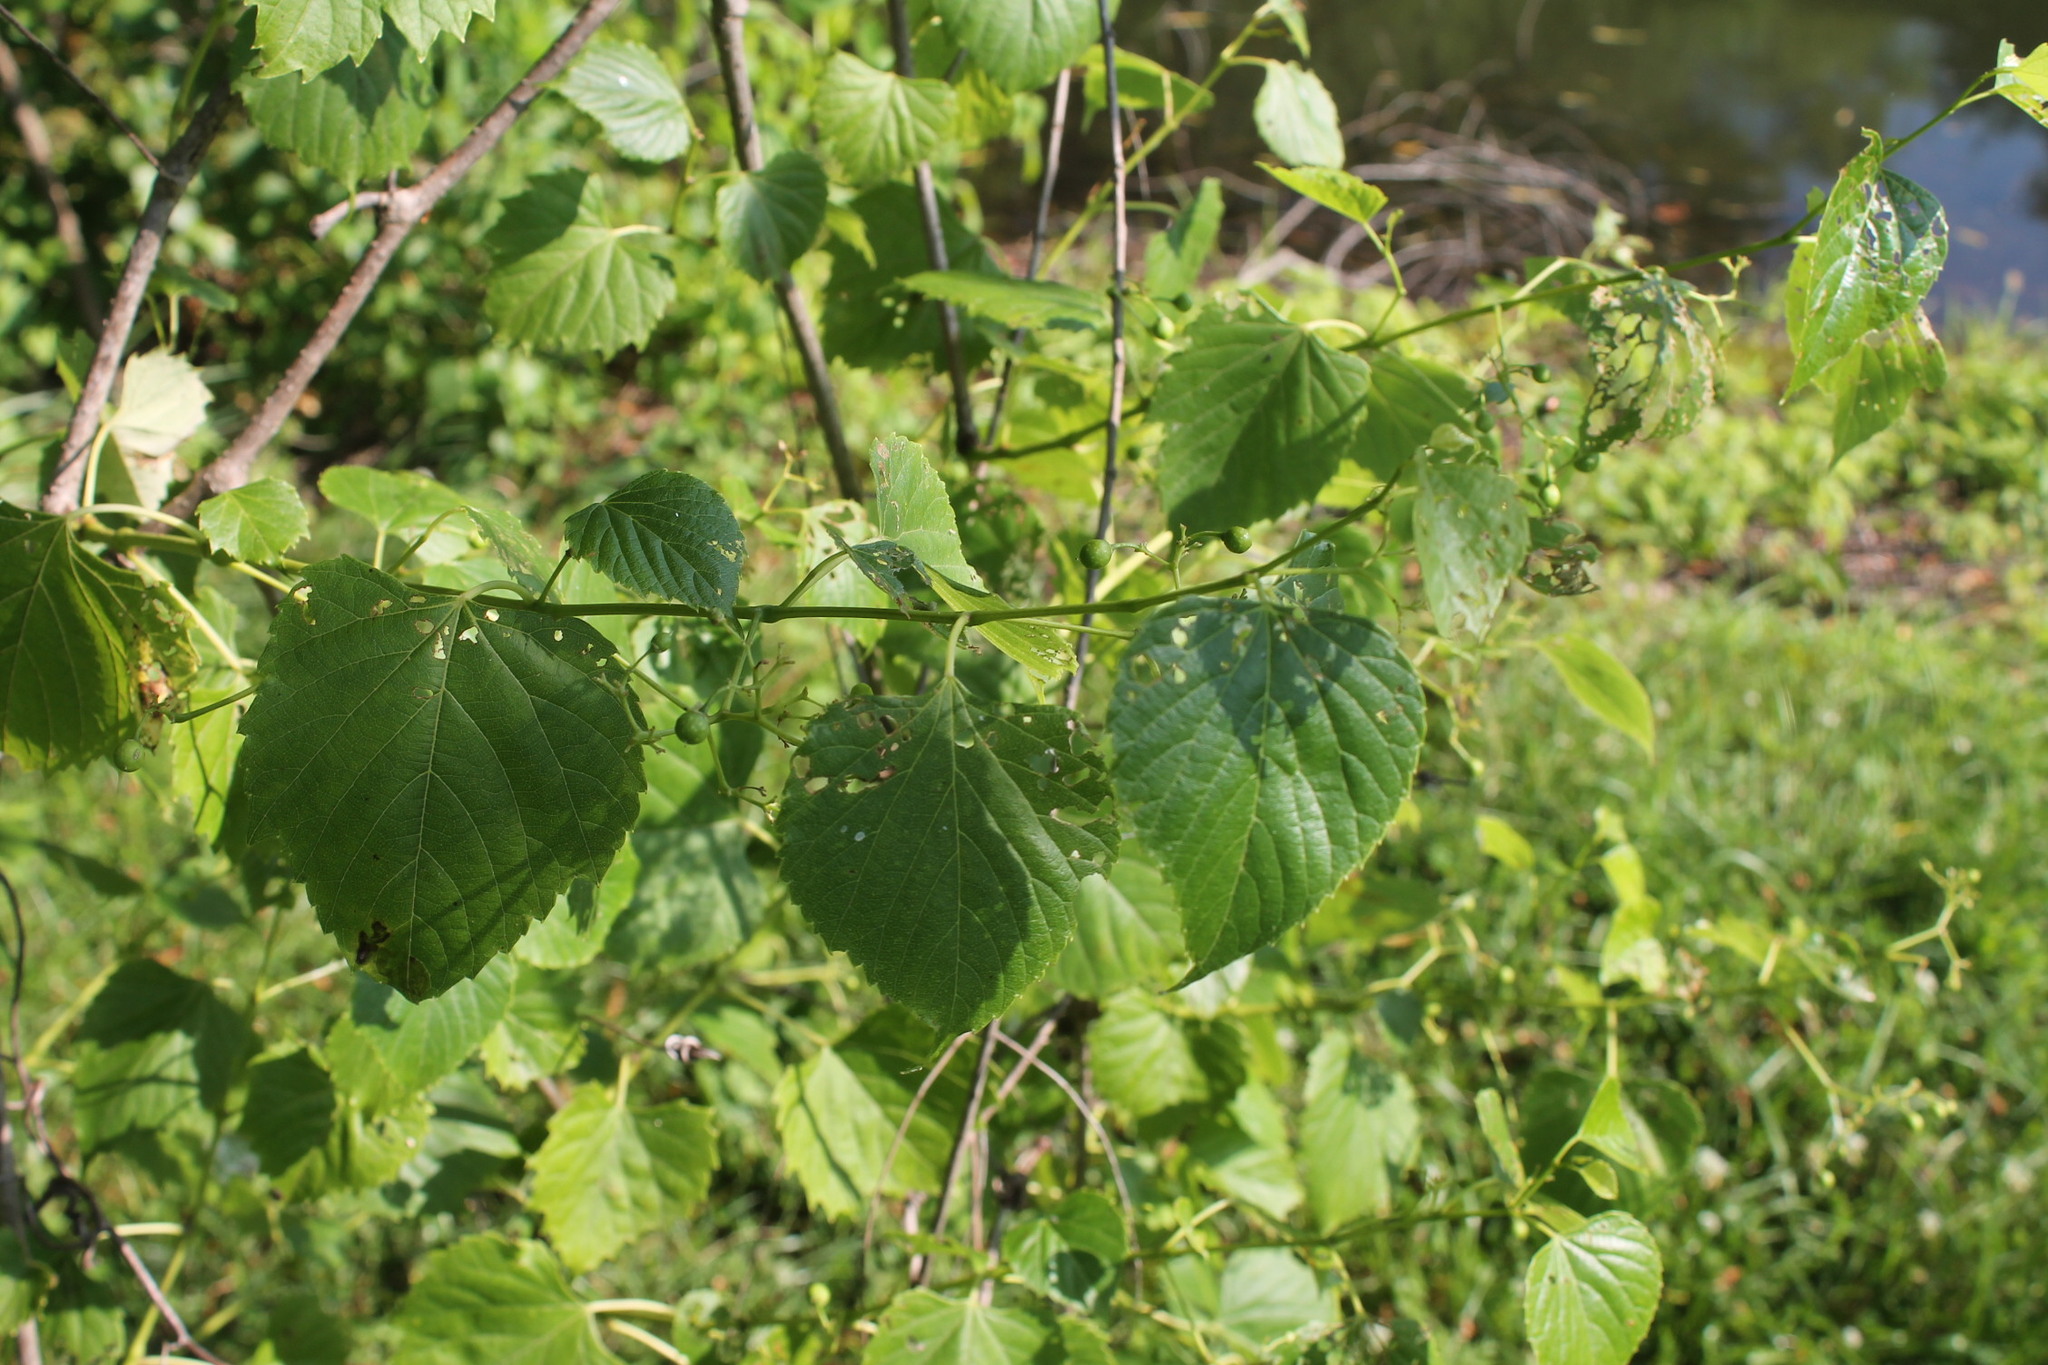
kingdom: Plantae
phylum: Tracheophyta
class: Magnoliopsida
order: Vitales
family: Vitaceae
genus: Ampelopsis
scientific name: Ampelopsis cordata
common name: Heart-leaf ampelopsis
